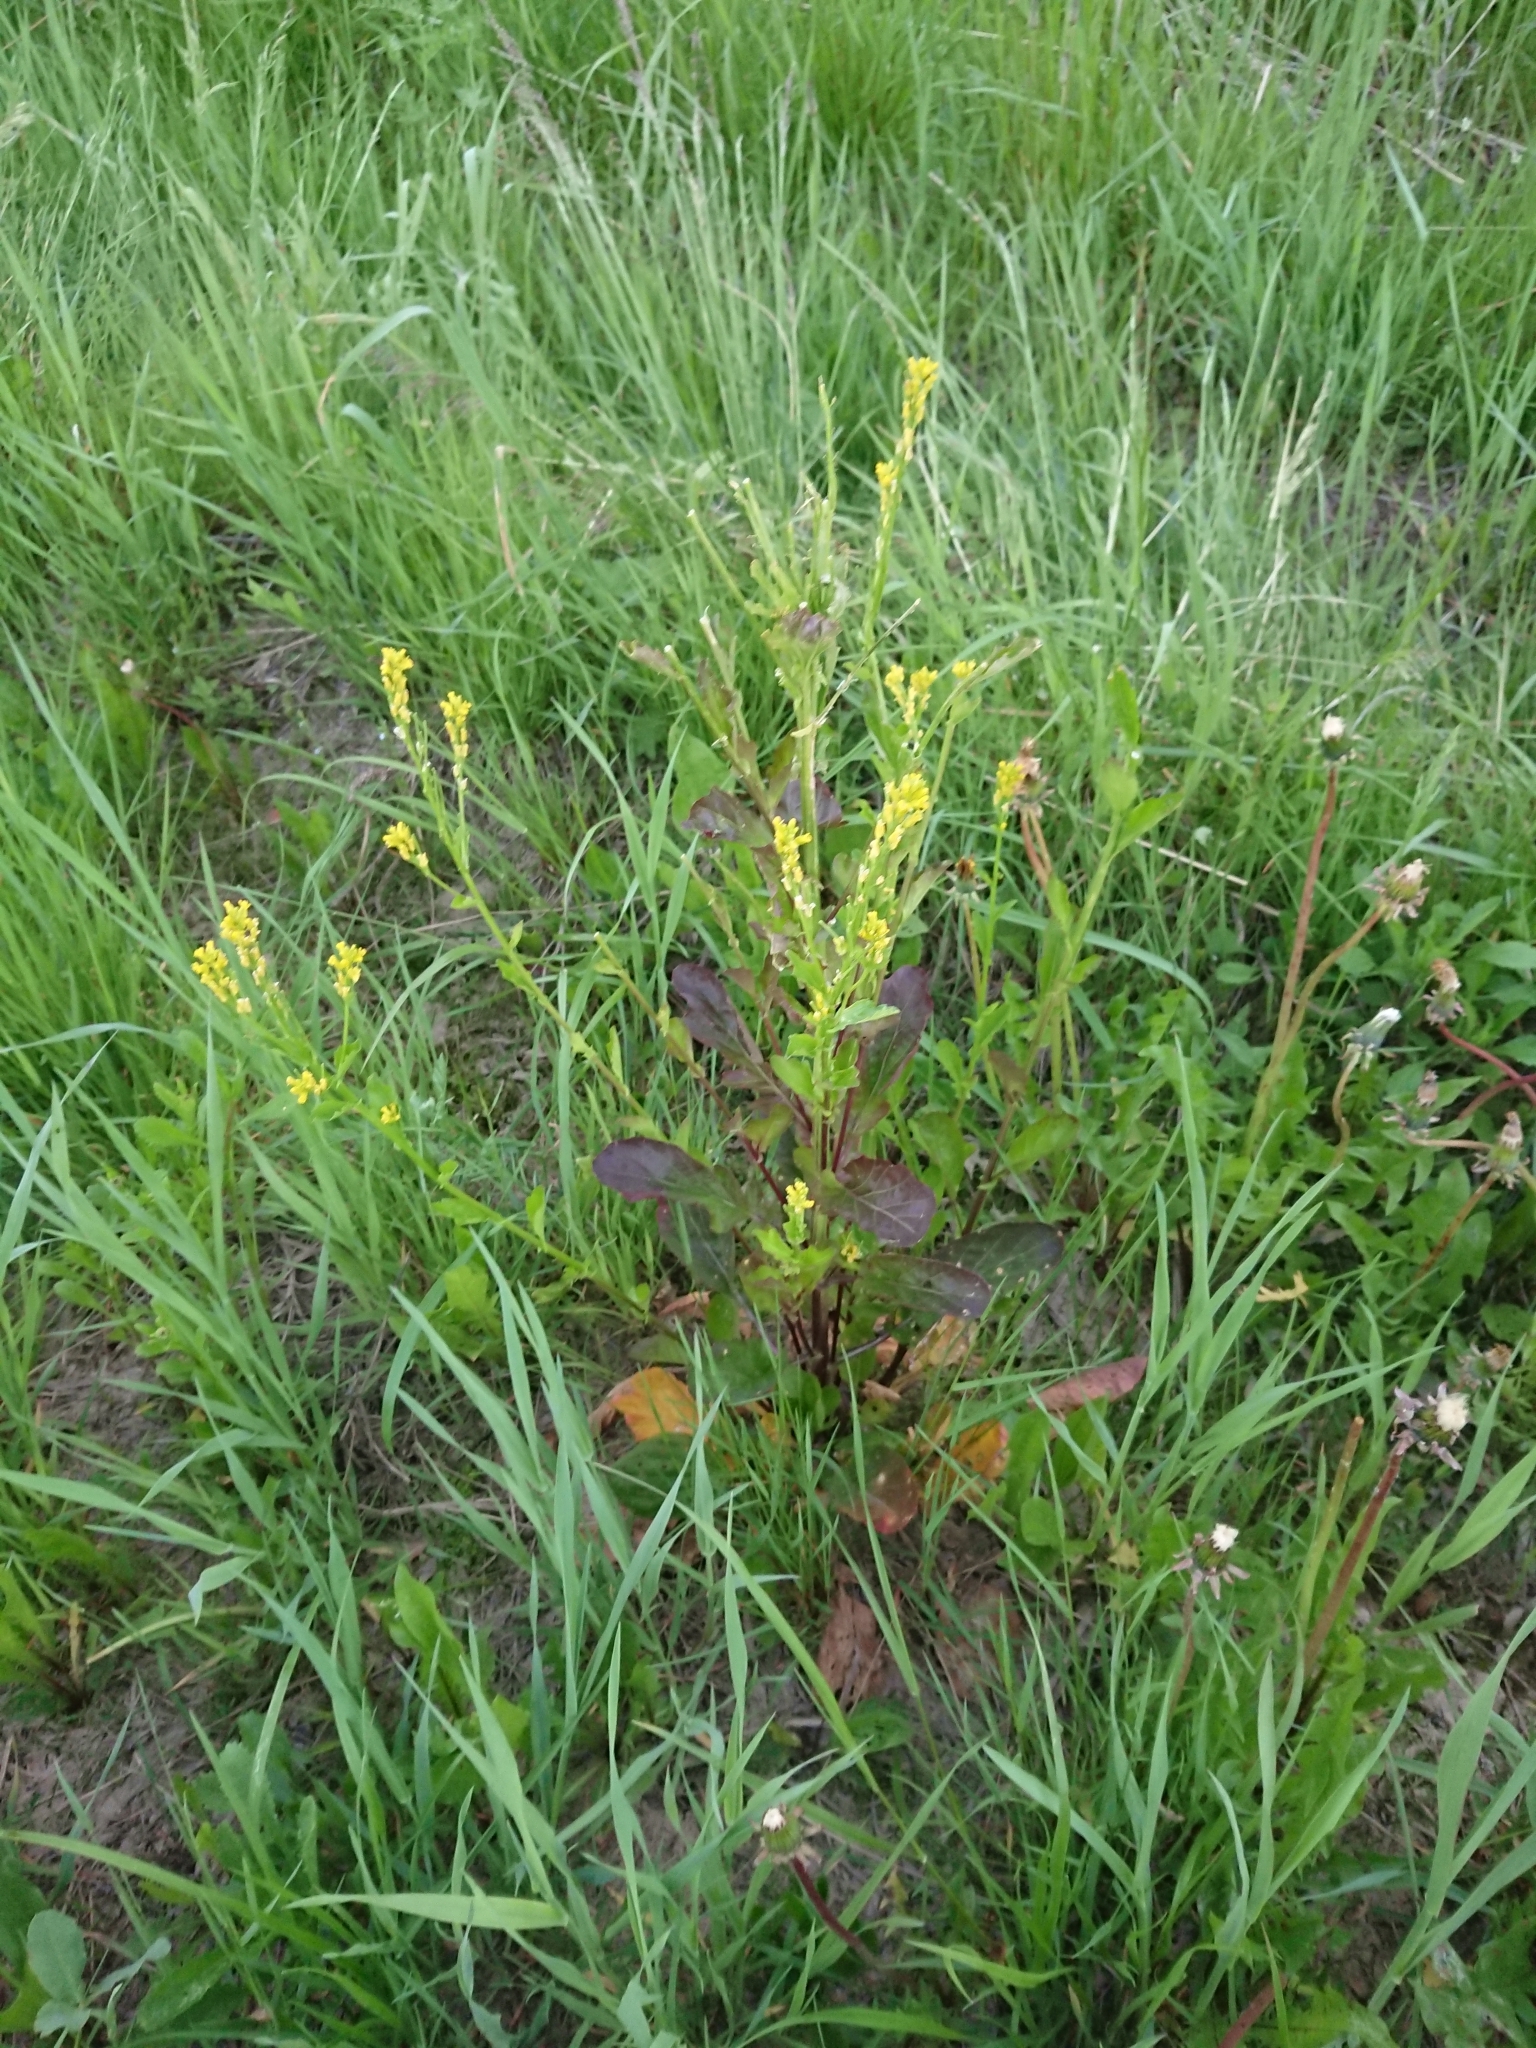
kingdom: Plantae
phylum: Tracheophyta
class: Magnoliopsida
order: Brassicales
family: Brassicaceae
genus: Barbarea
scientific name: Barbarea stricta
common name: Small-flowered winter-cress
